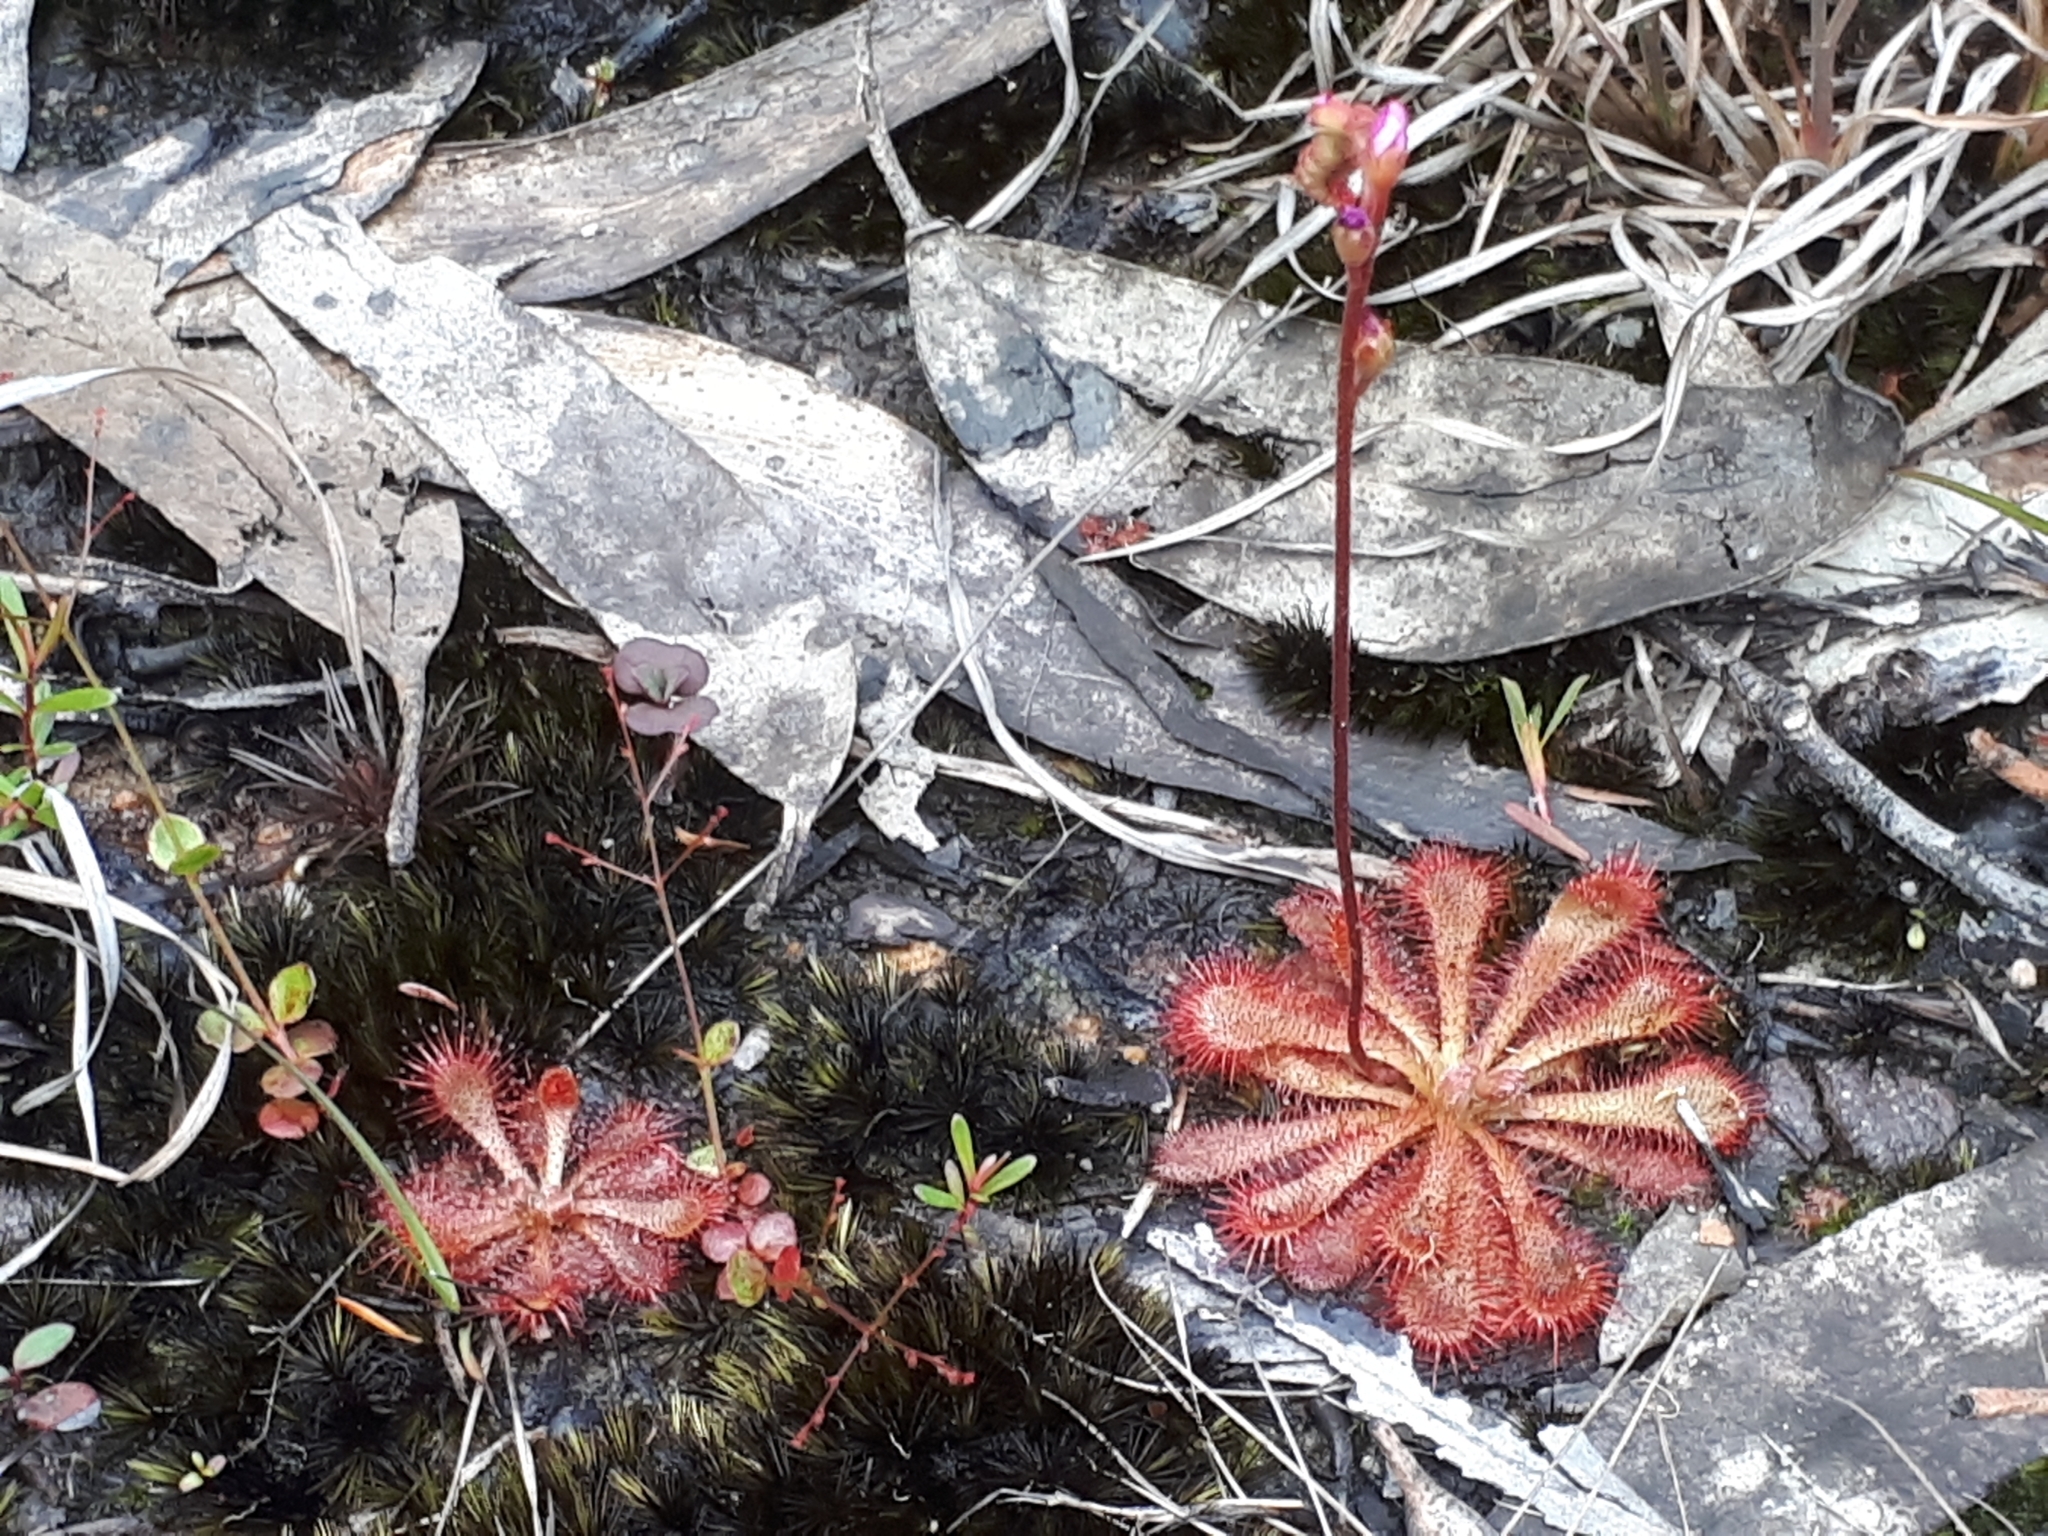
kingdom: Plantae
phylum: Tracheophyta
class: Magnoliopsida
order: Caryophyllales
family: Droseraceae
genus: Drosera
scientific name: Drosera spatulata
